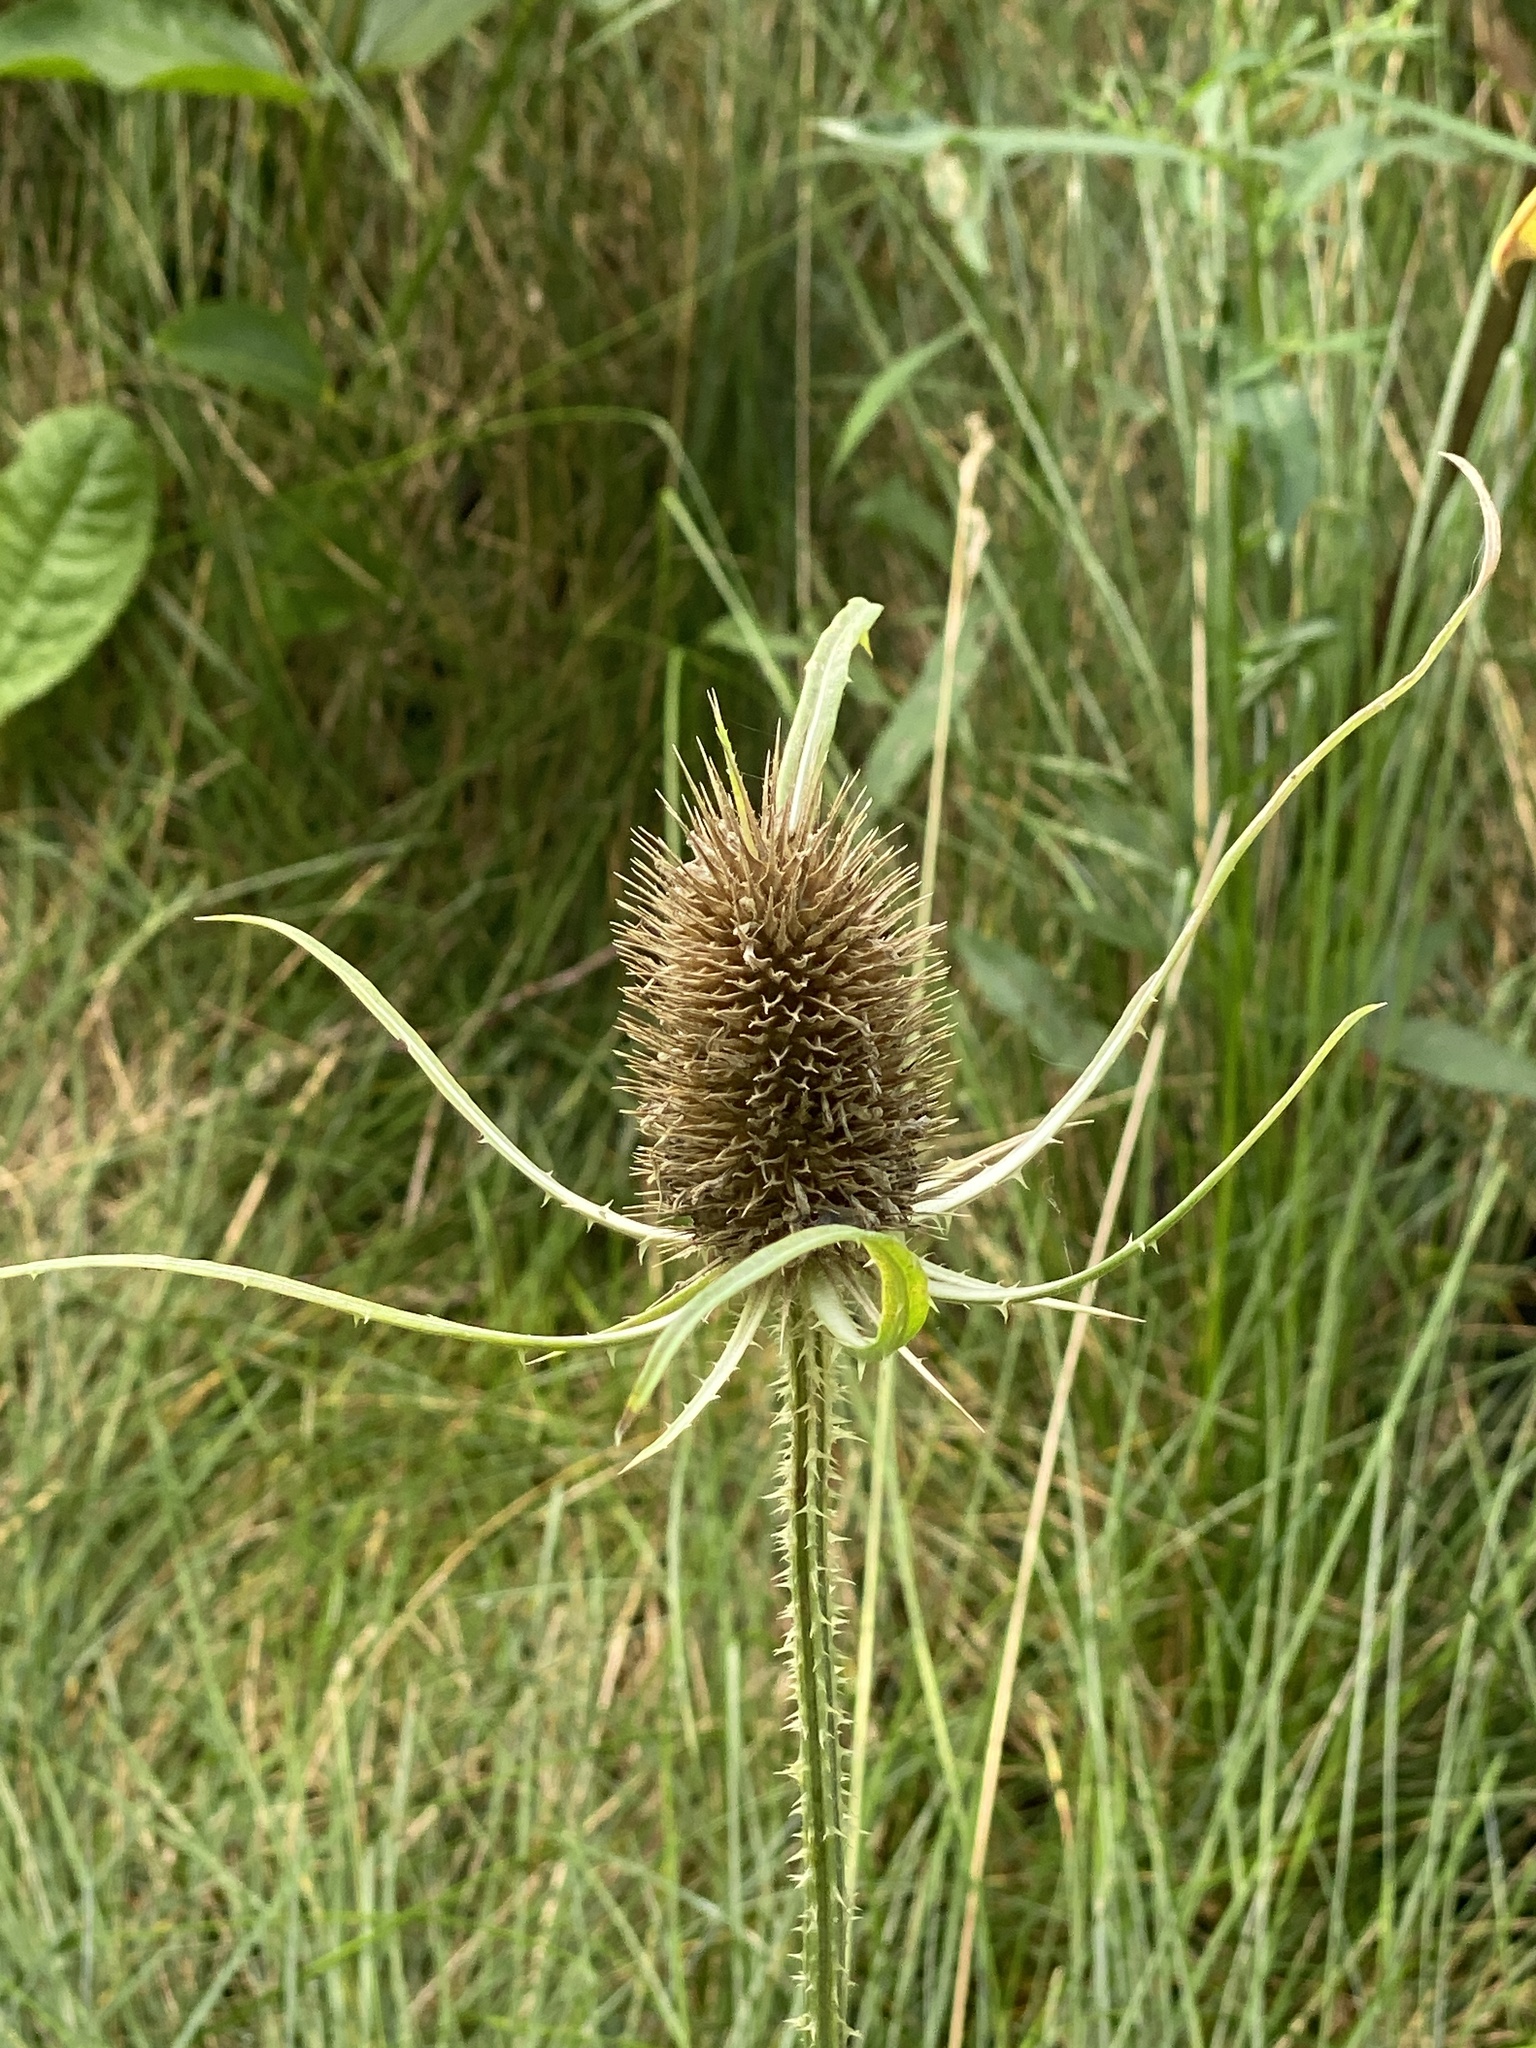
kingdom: Plantae
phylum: Tracheophyta
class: Magnoliopsida
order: Dipsacales
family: Caprifoliaceae
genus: Dipsacus
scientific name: Dipsacus fullonum
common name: Teasel
